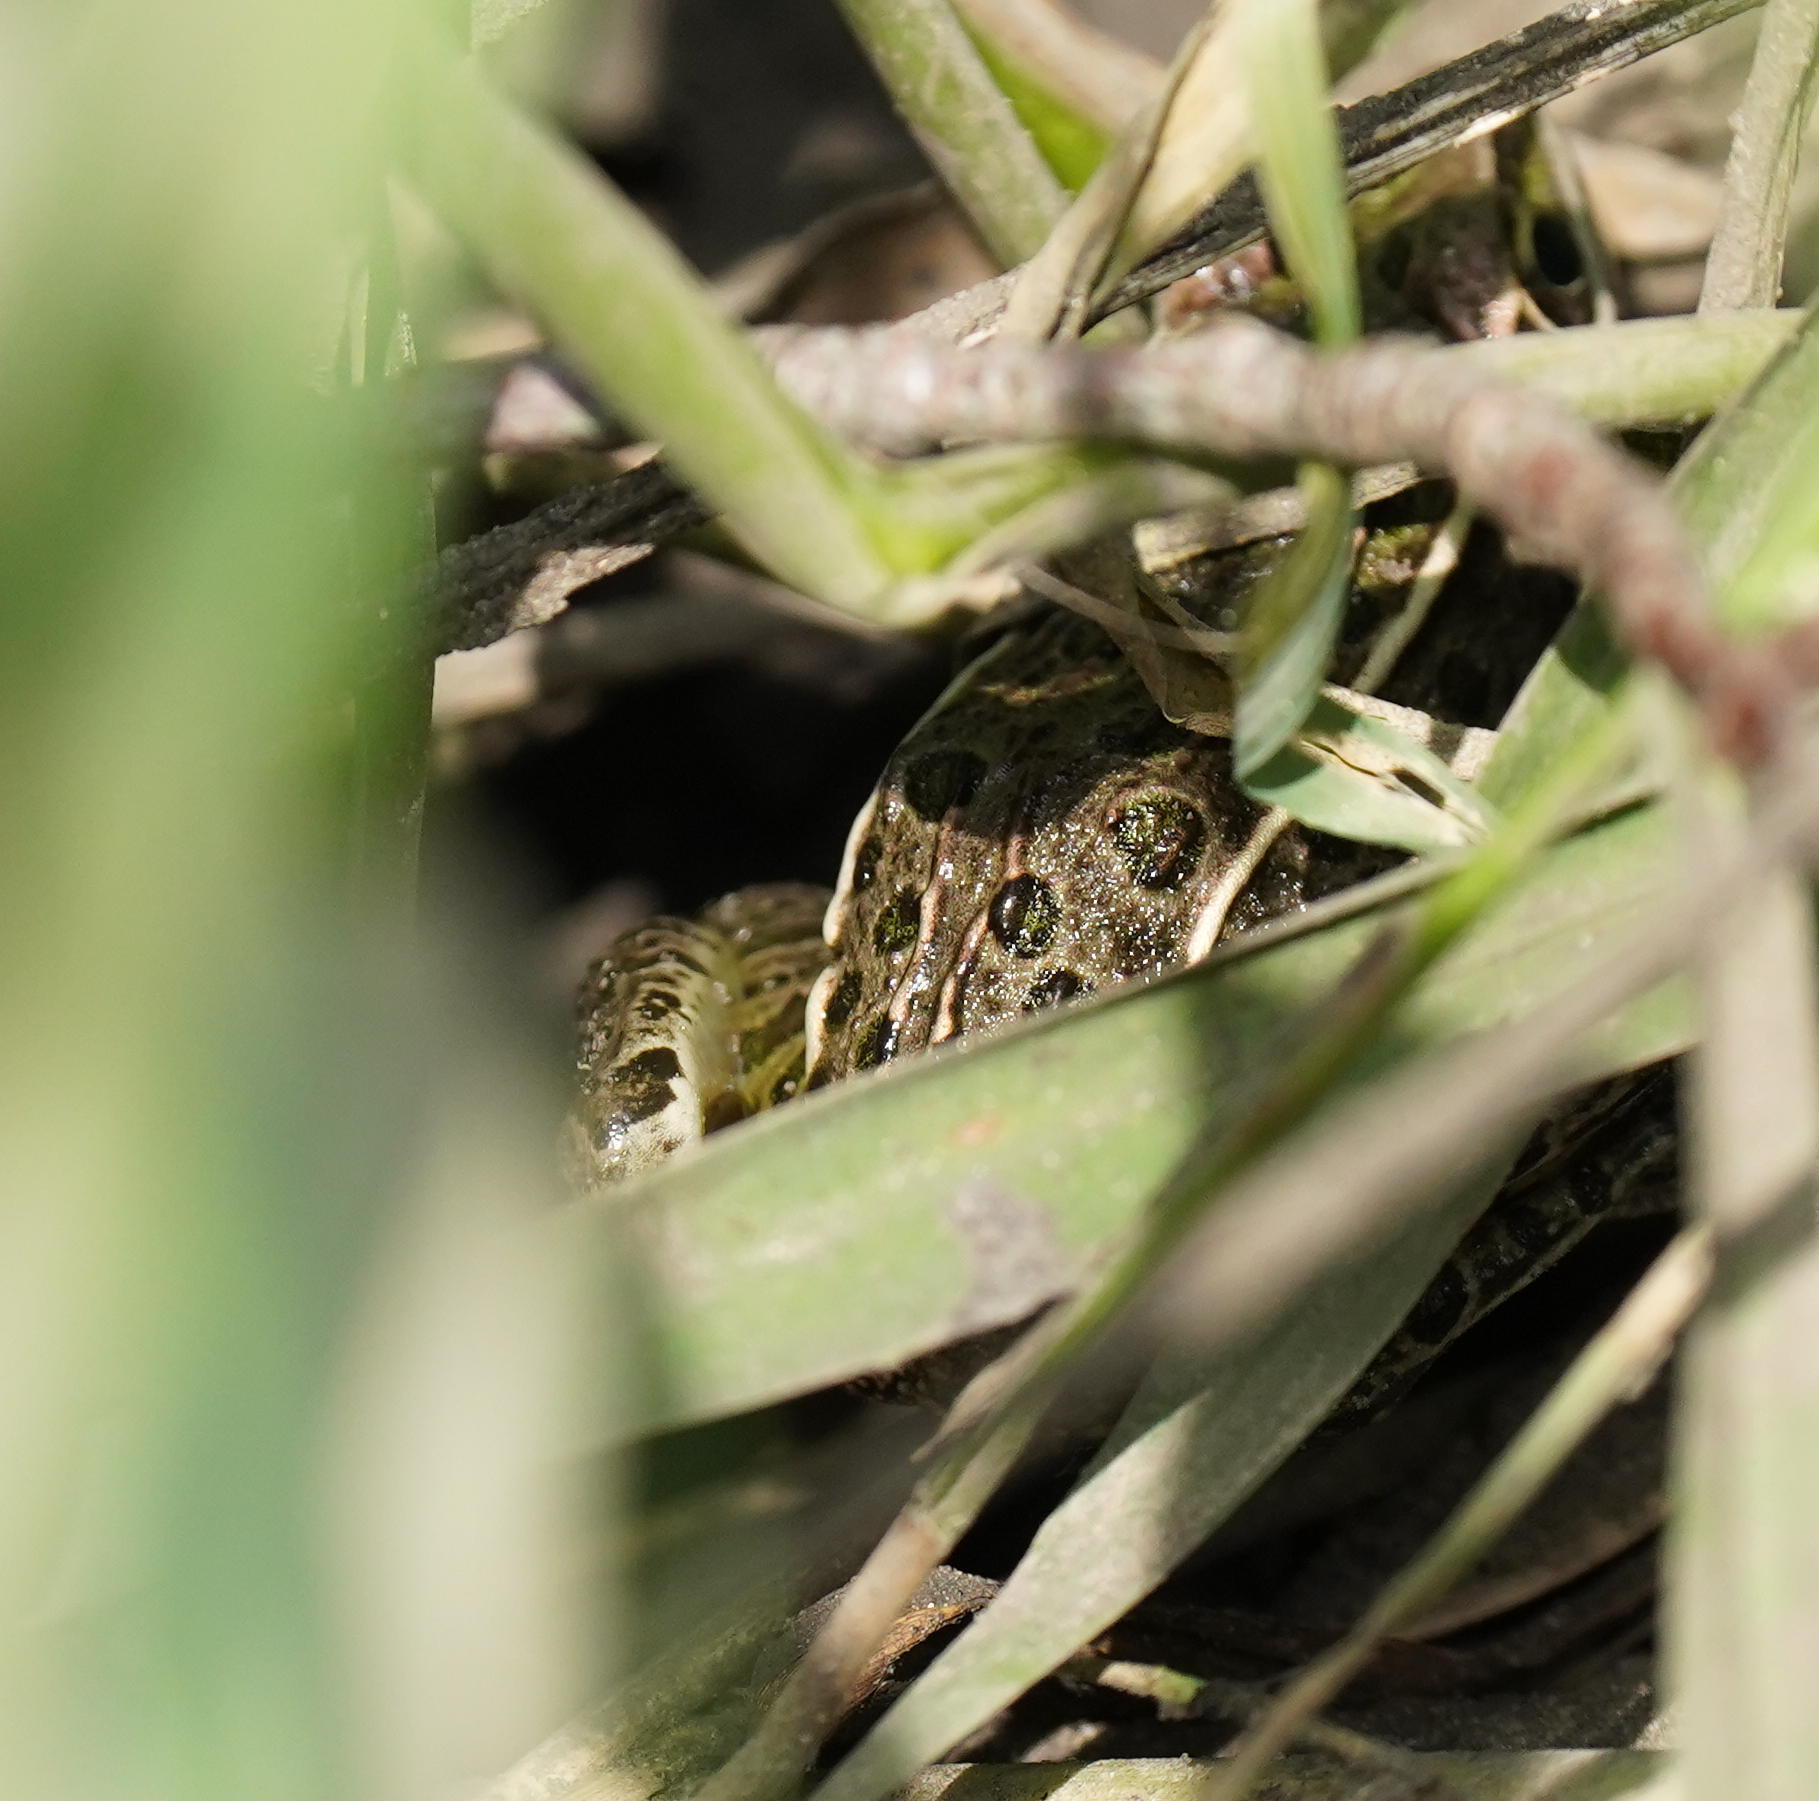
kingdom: Animalia
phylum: Chordata
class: Amphibia
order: Anura
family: Ranidae
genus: Lithobates
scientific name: Lithobates blairi
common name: Plains leopard frog
